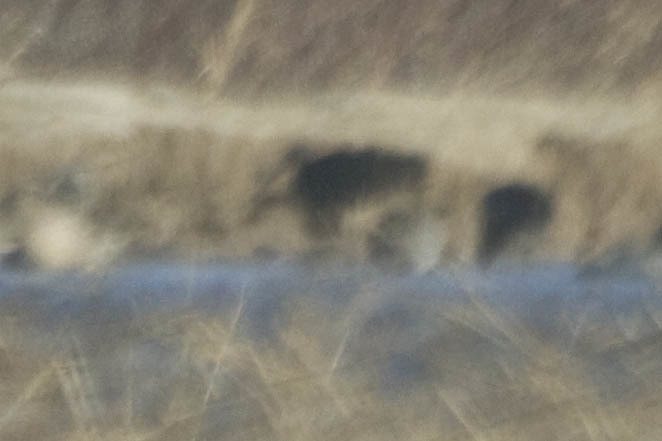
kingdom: Animalia
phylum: Chordata
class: Aves
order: Pelecaniformes
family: Threskiornithidae
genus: Plegadis
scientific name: Plegadis chihi
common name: White-faced ibis
